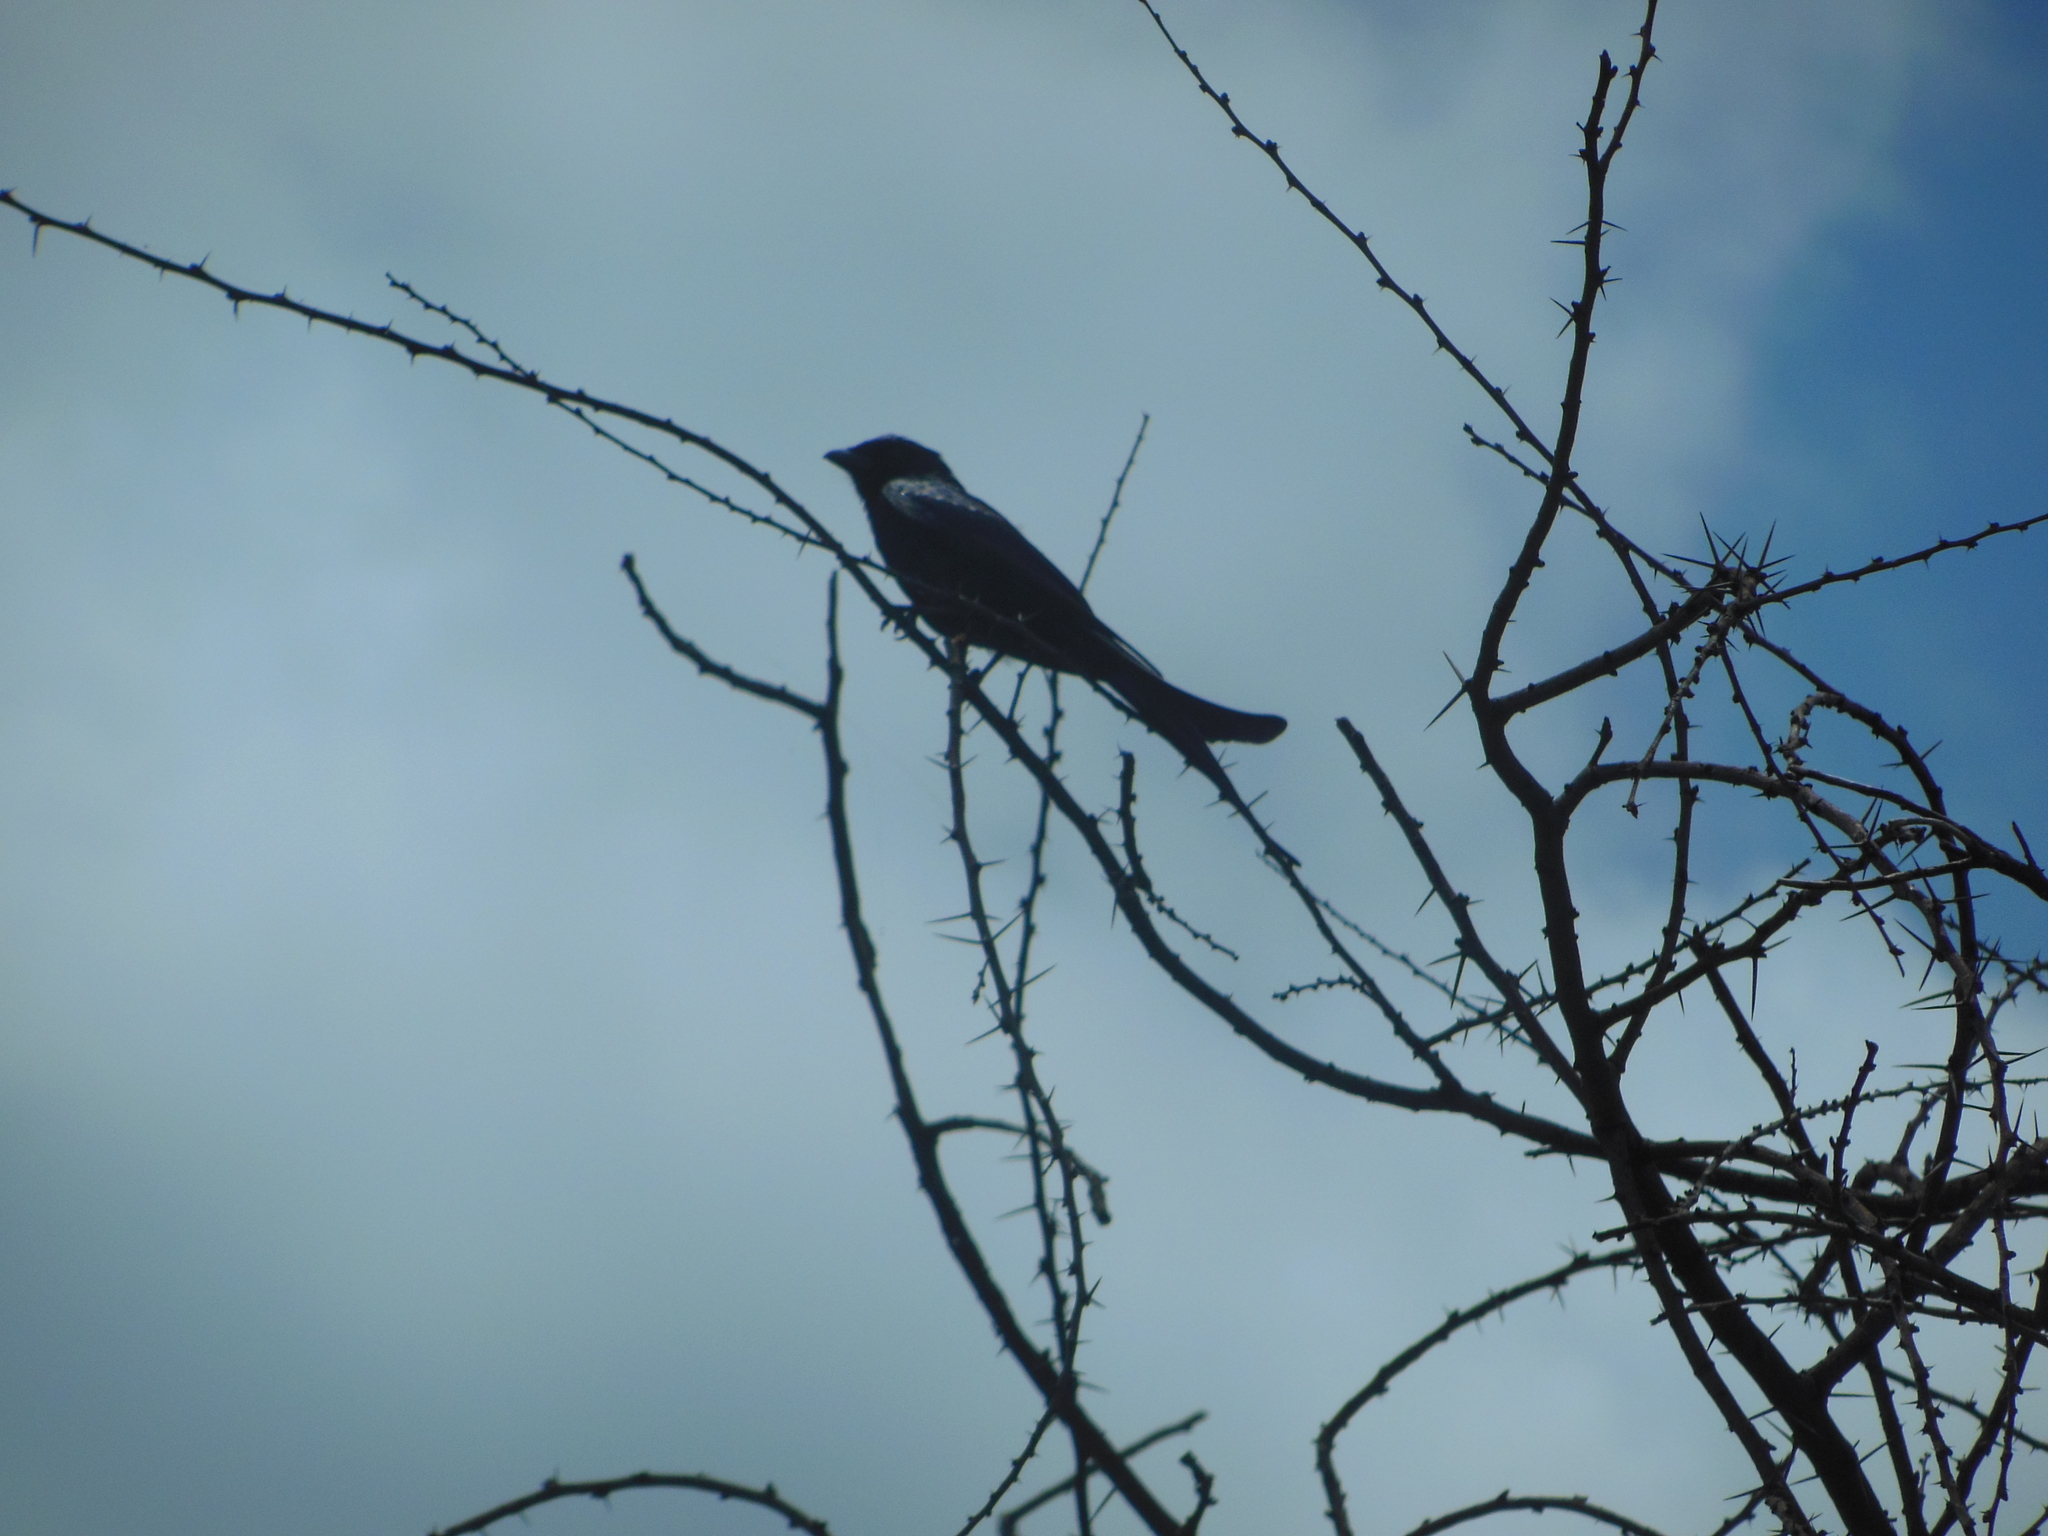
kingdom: Animalia
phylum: Chordata
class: Aves
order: Passeriformes
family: Dicruridae
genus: Dicrurus
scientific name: Dicrurus macrocercus
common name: Black drongo
